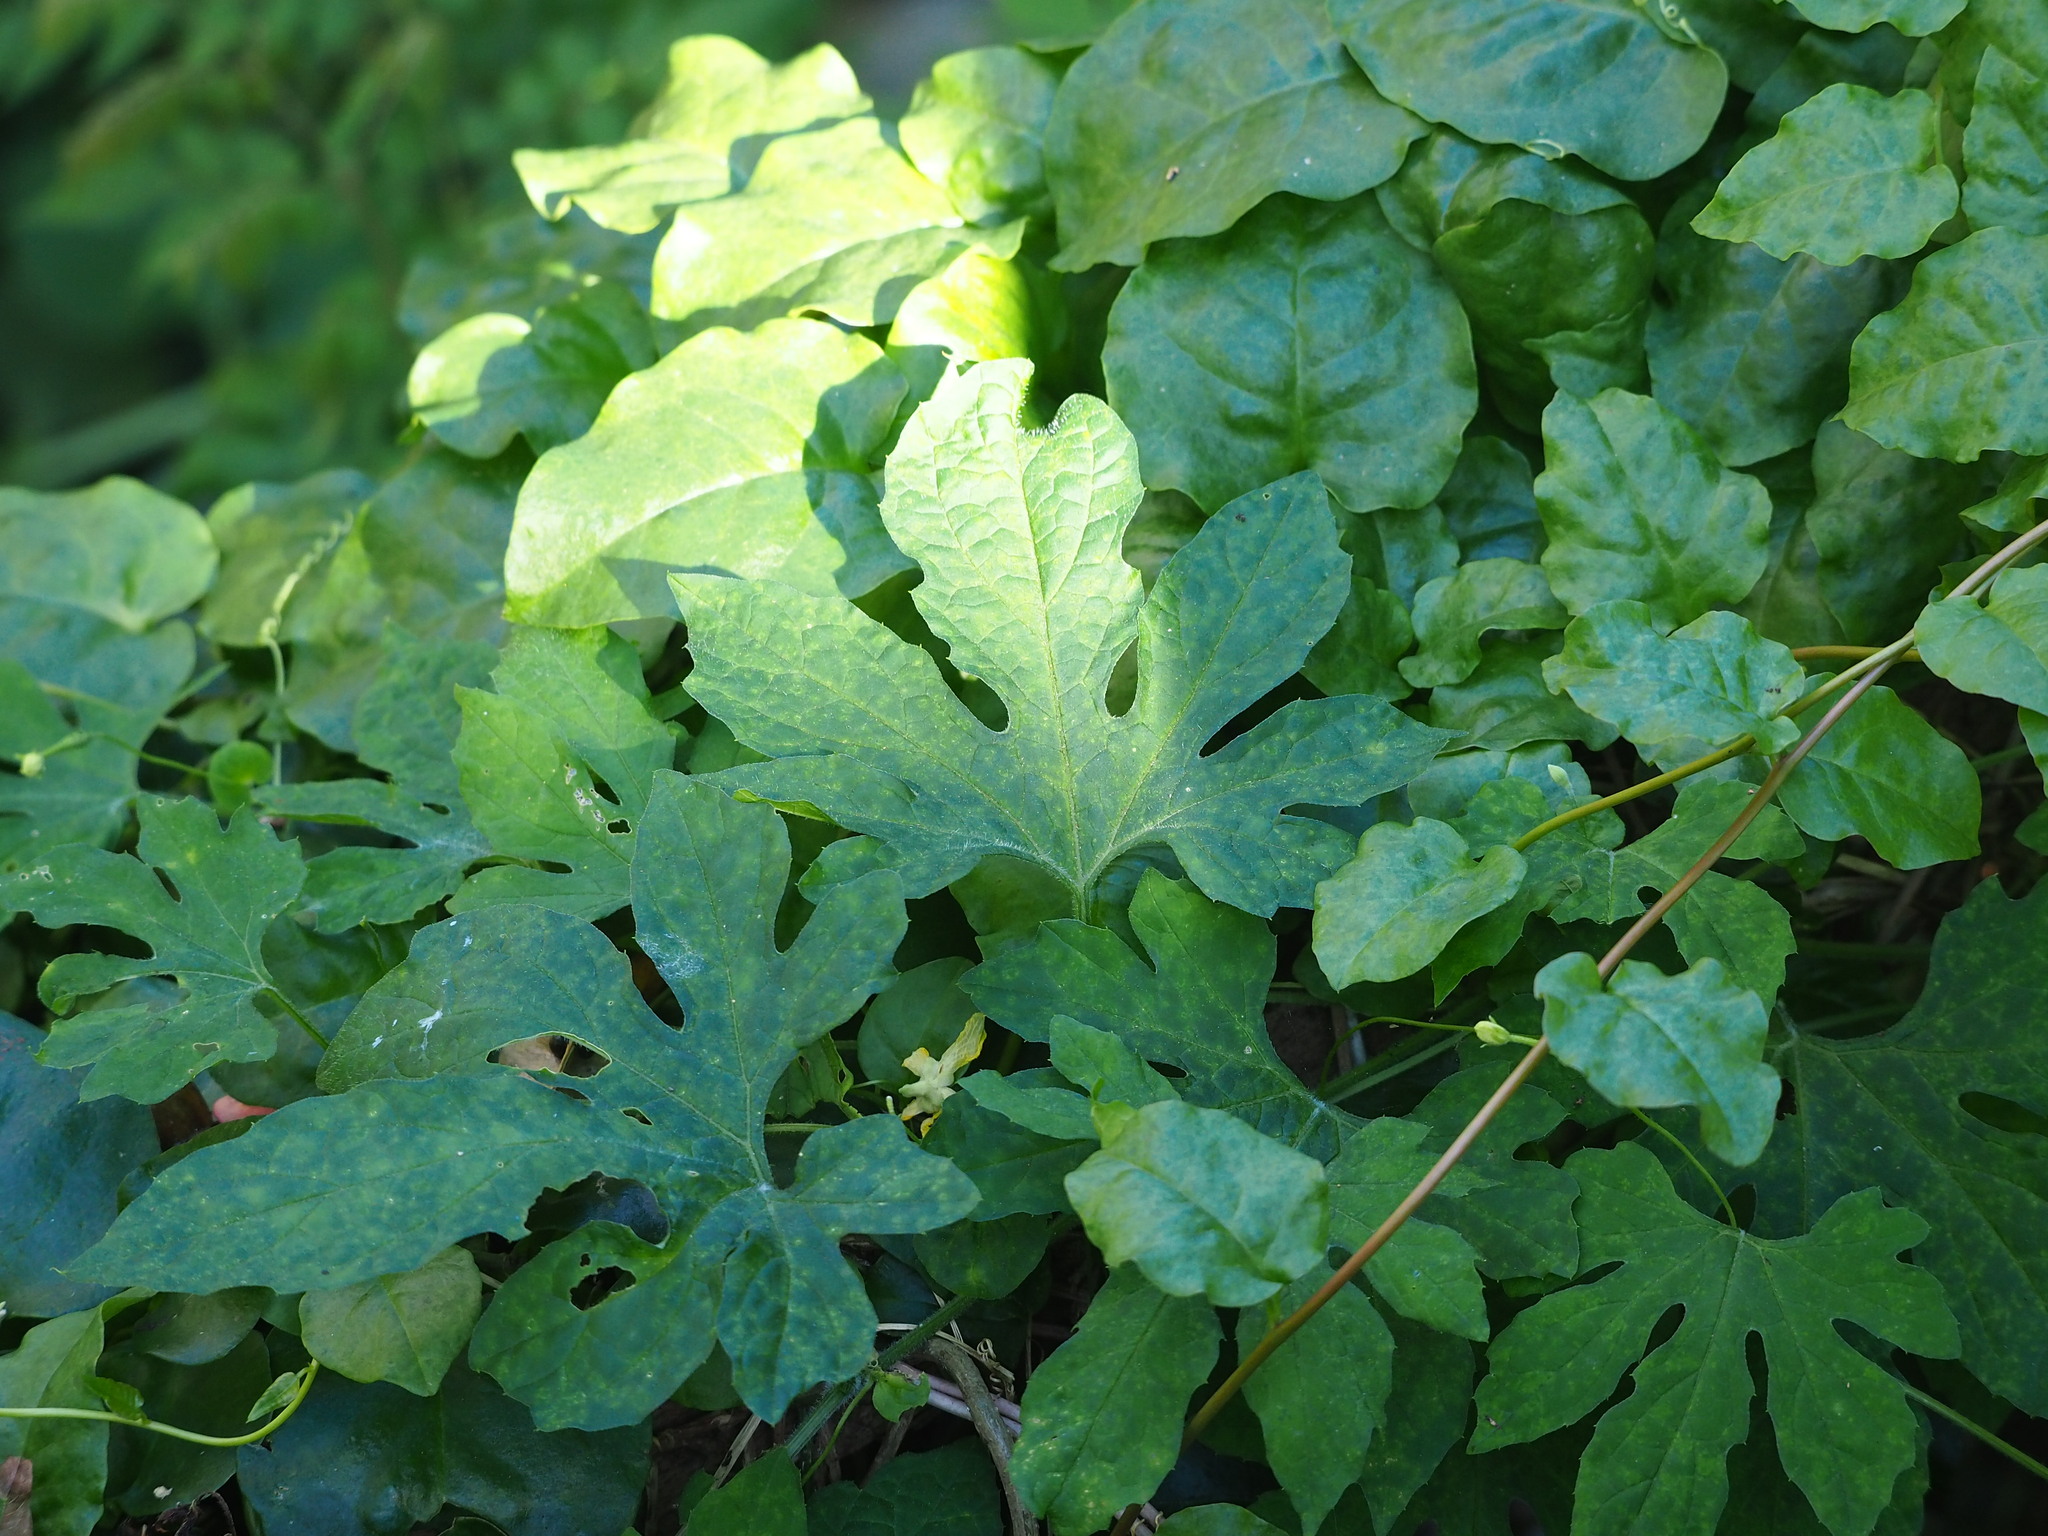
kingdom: Plantae
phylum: Tracheophyta
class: Magnoliopsida
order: Cucurbitales
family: Cucurbitaceae
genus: Momordica
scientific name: Momordica charantia
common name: Balsampear
